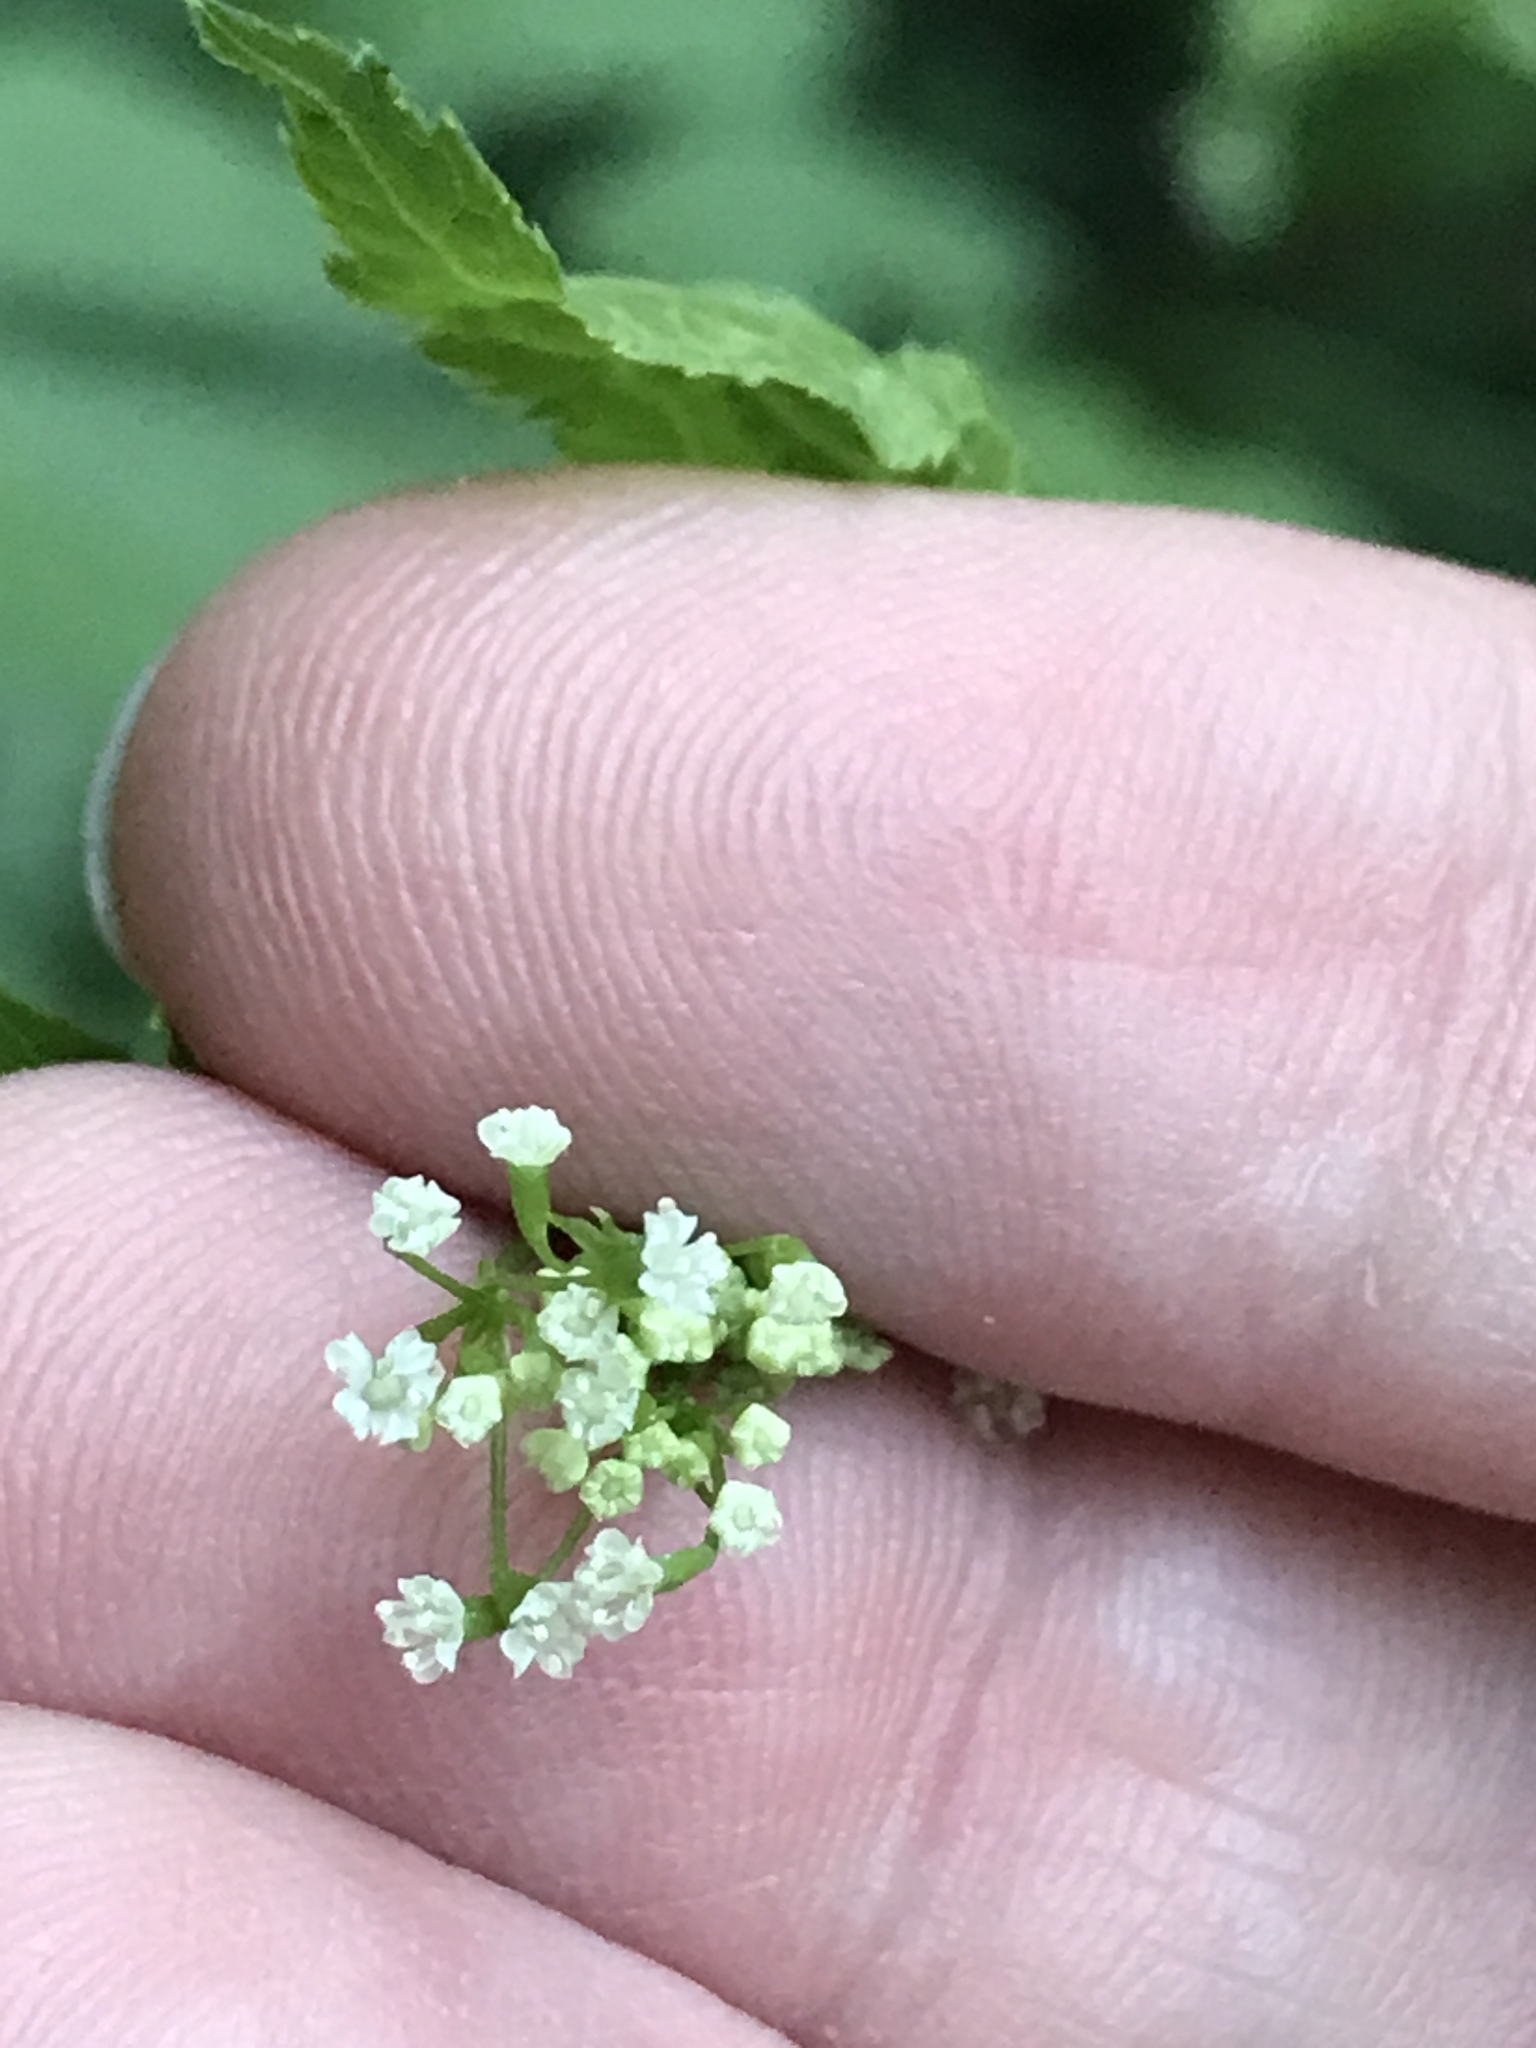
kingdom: Plantae
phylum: Tracheophyta
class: Magnoliopsida
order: Apiales
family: Apiaceae
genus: Cryptotaenia
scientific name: Cryptotaenia canadensis
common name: Honewort
